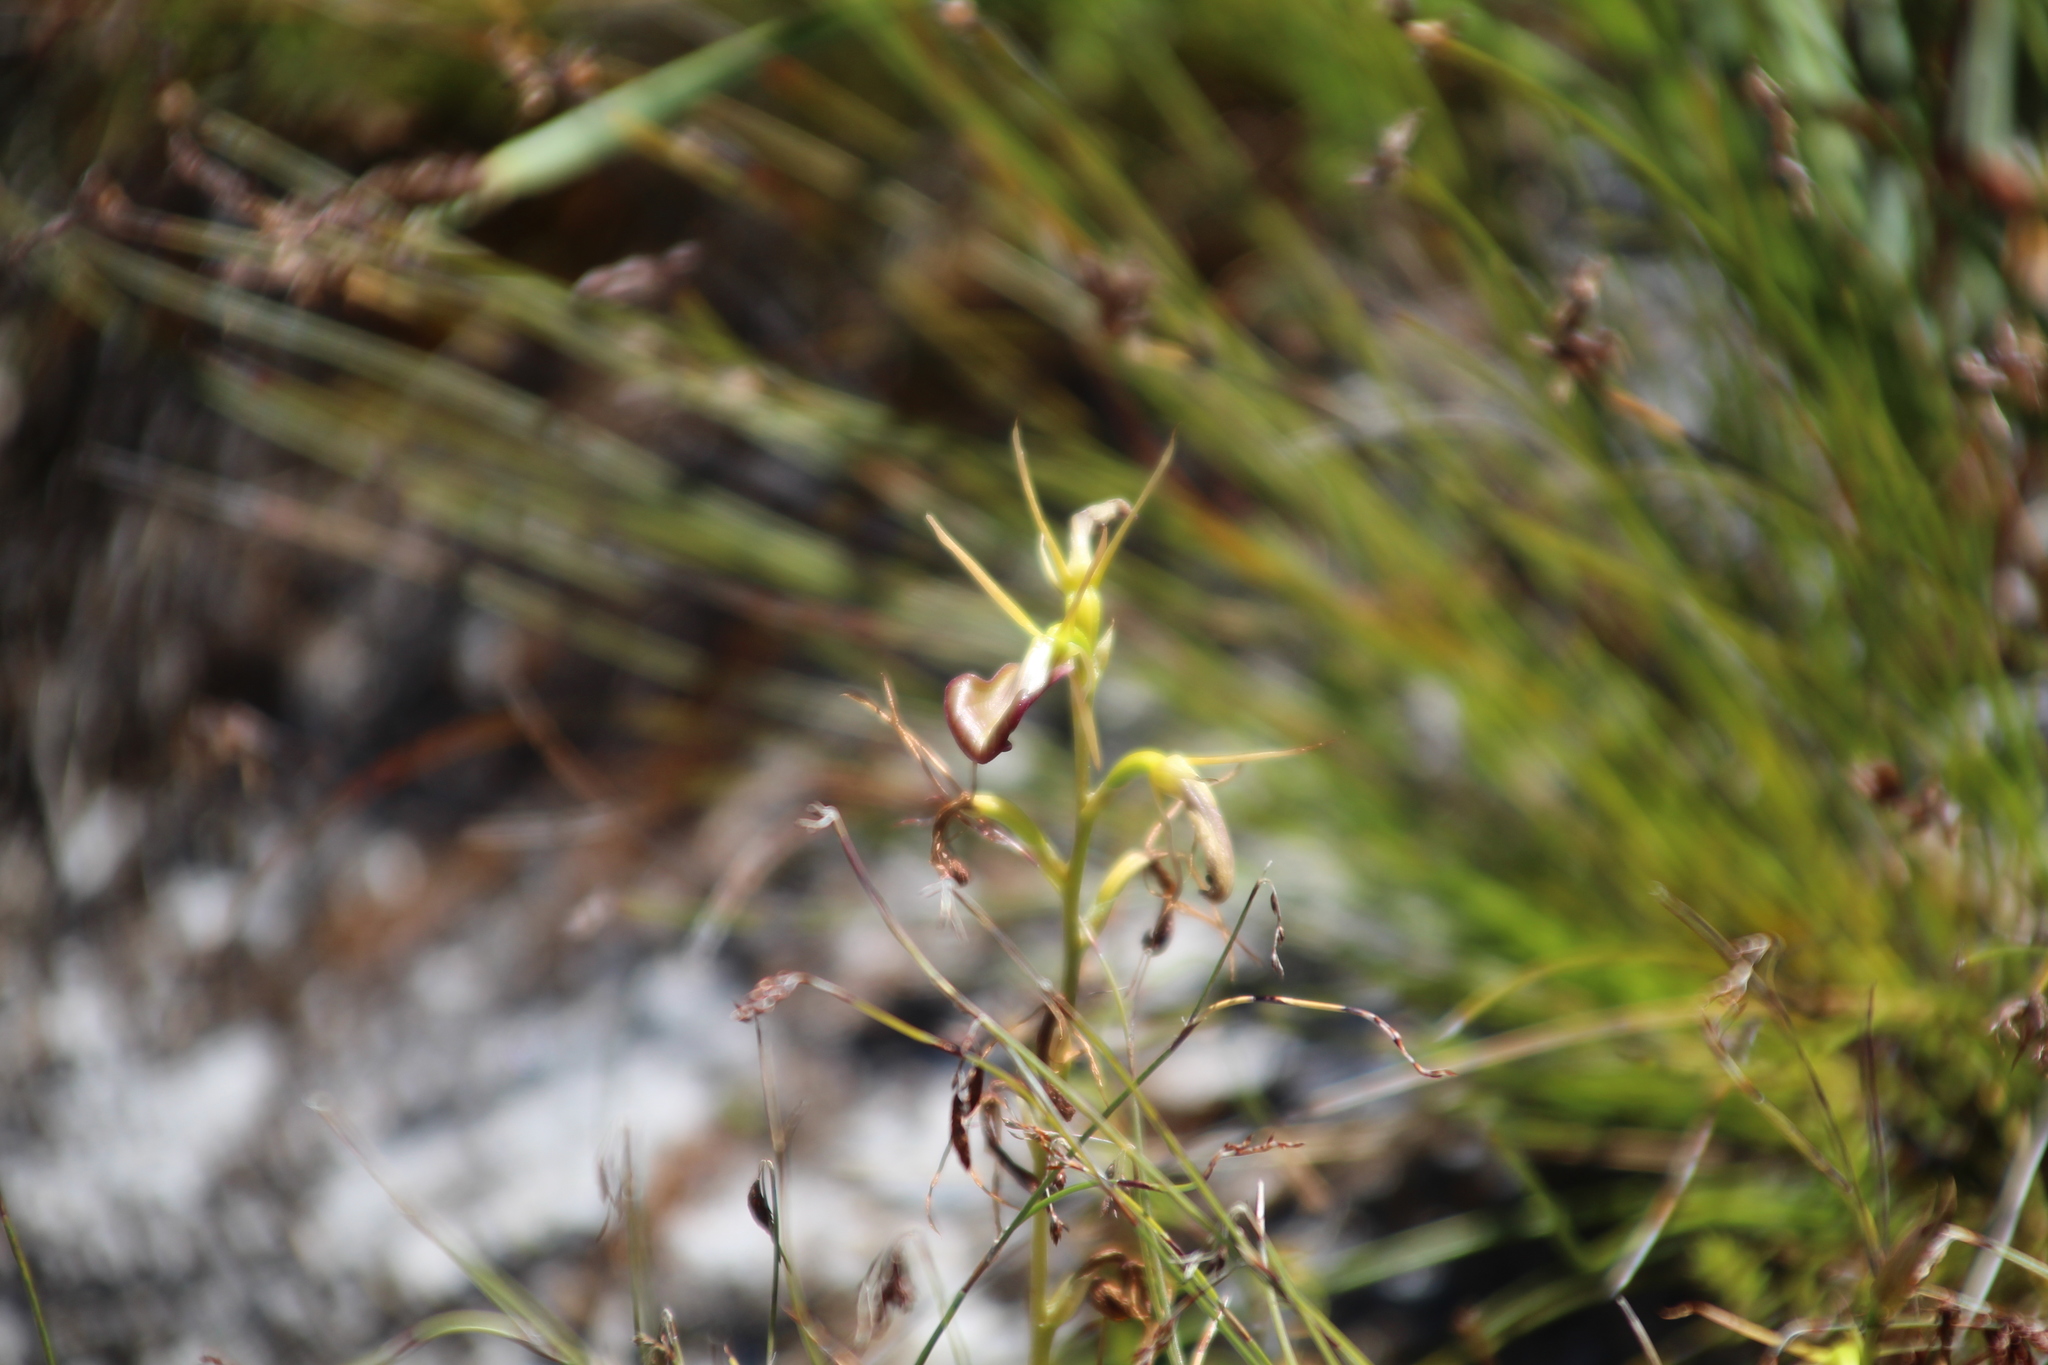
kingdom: Plantae
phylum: Tracheophyta
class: Liliopsida
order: Asparagales
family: Orchidaceae
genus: Cryptostylis
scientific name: Cryptostylis ovata
